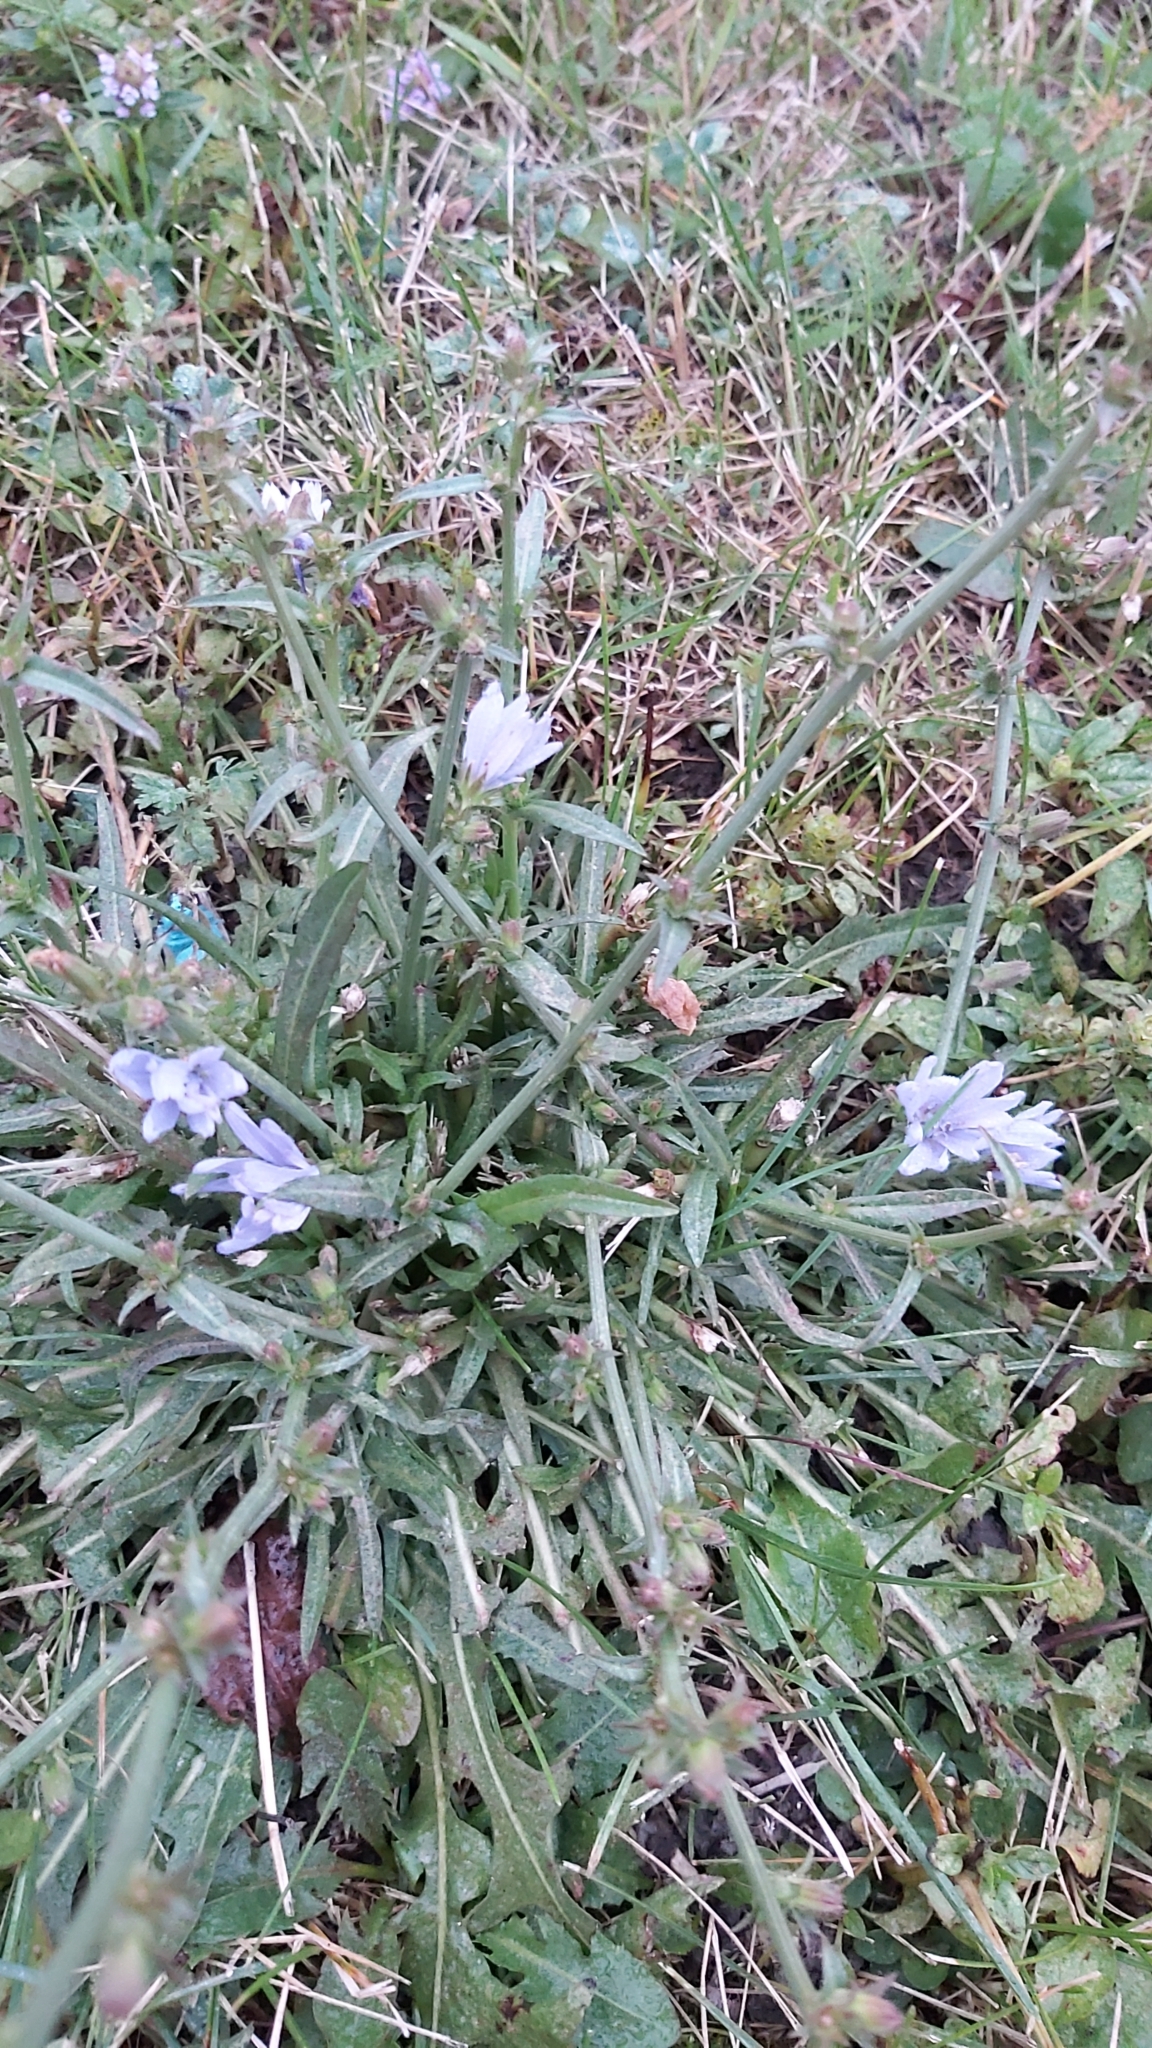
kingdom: Plantae
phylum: Tracheophyta
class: Magnoliopsida
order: Asterales
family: Asteraceae
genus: Cichorium
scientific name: Cichorium intybus
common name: Chicory
